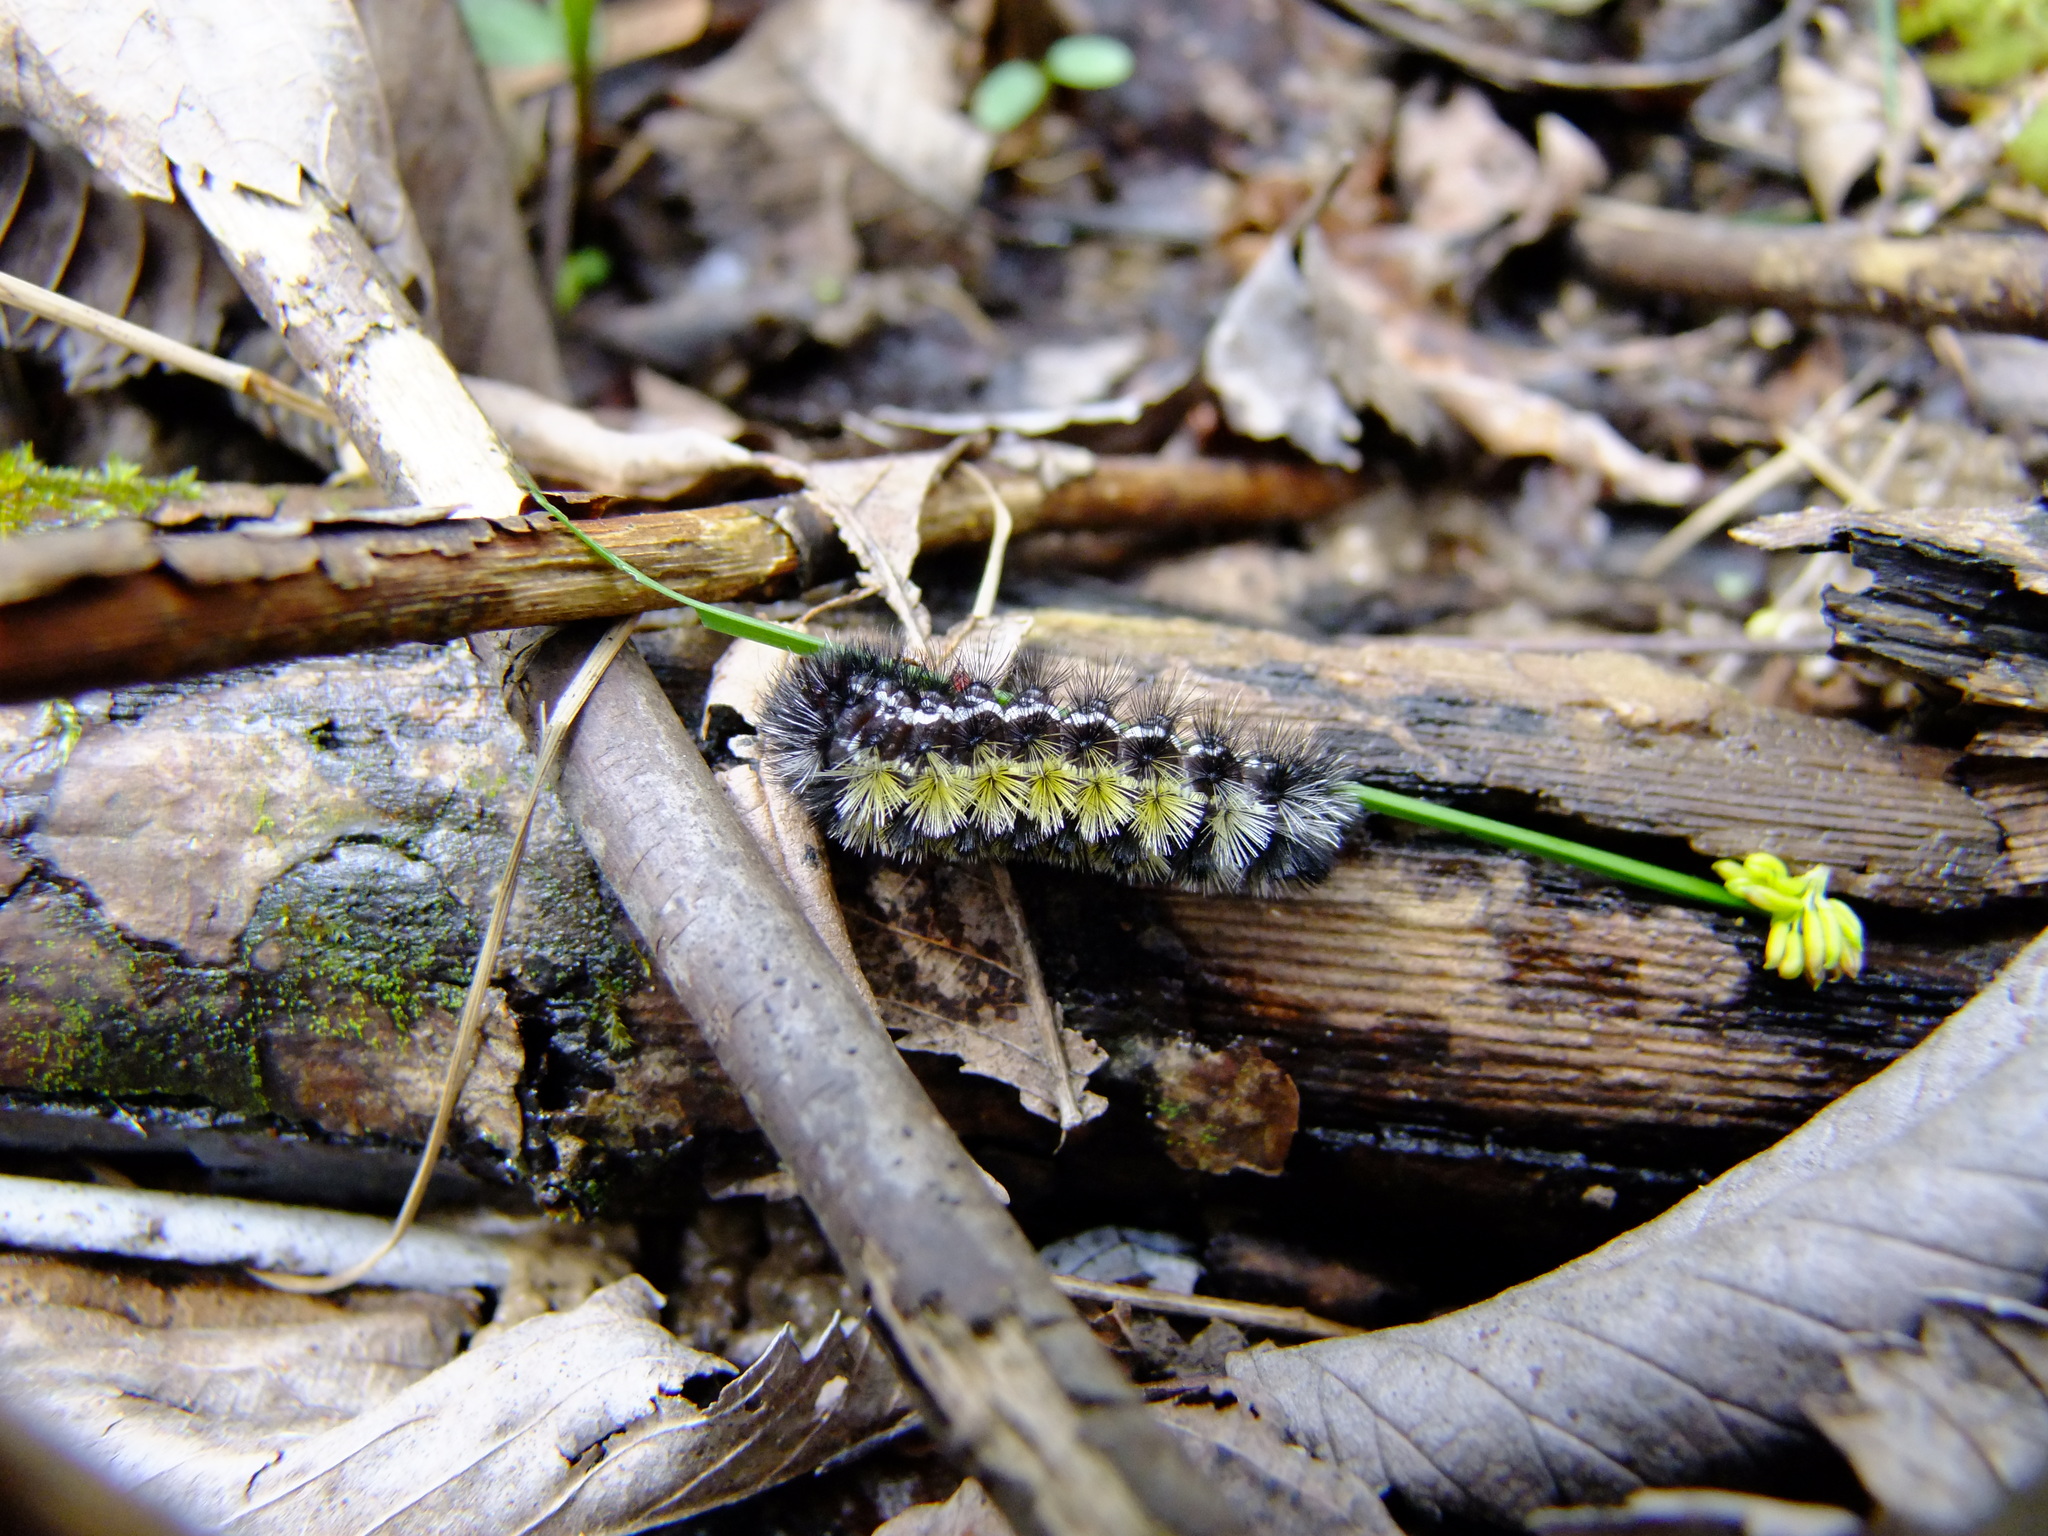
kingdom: Animalia
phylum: Arthropoda
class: Insecta
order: Lepidoptera
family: Erebidae
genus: Ctenucha
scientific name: Ctenucha virginica
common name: Virginia ctenucha moth
